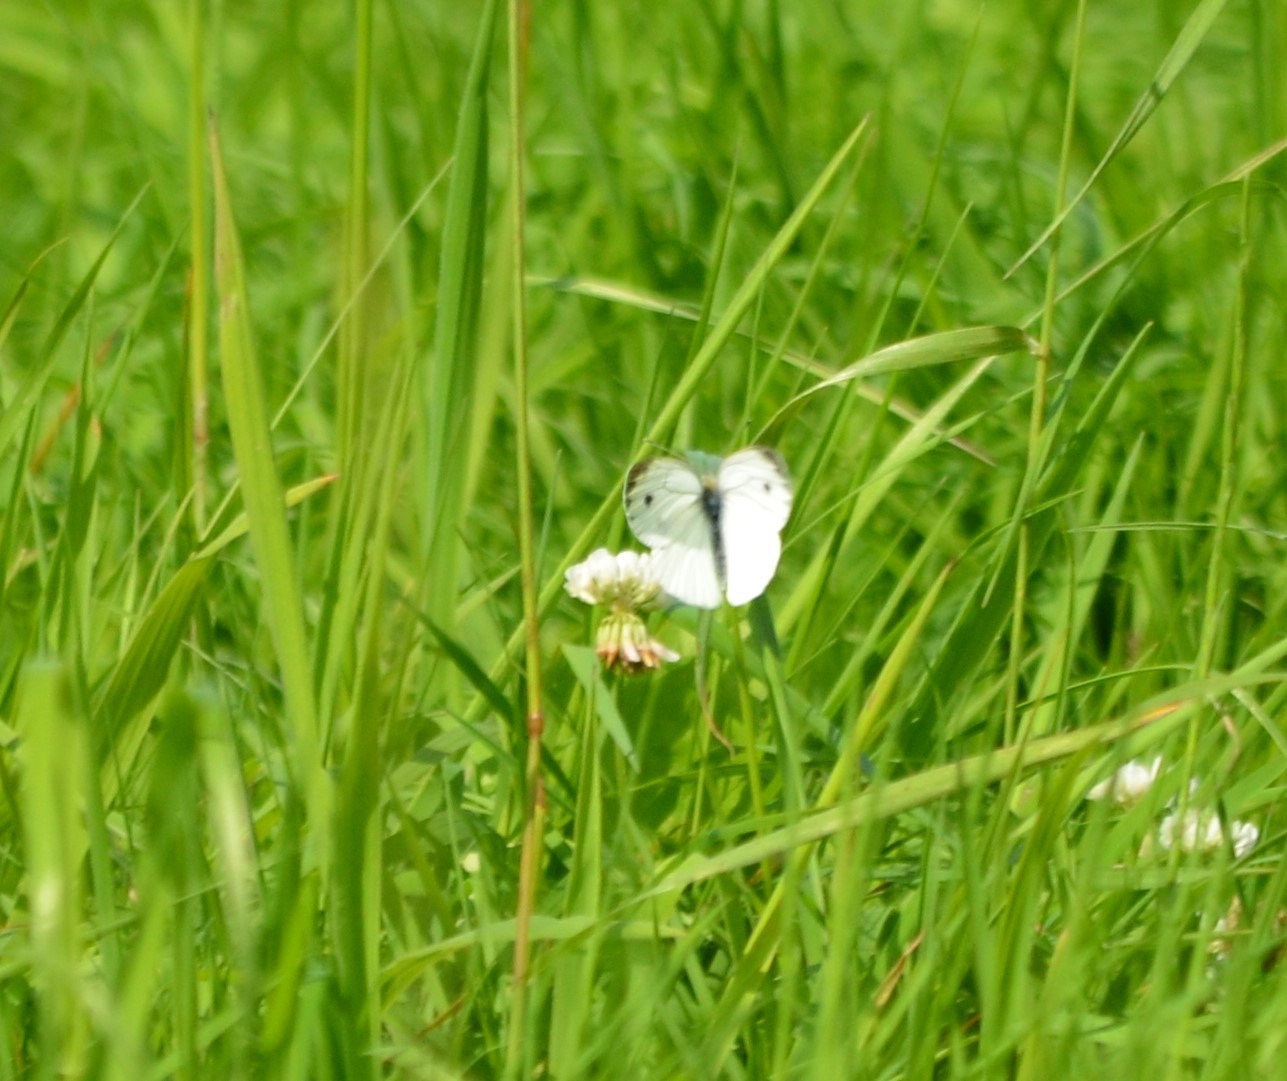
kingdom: Animalia
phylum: Arthropoda
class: Insecta
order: Lepidoptera
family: Pieridae
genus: Pieris
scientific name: Pieris napi
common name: Green-veined white
